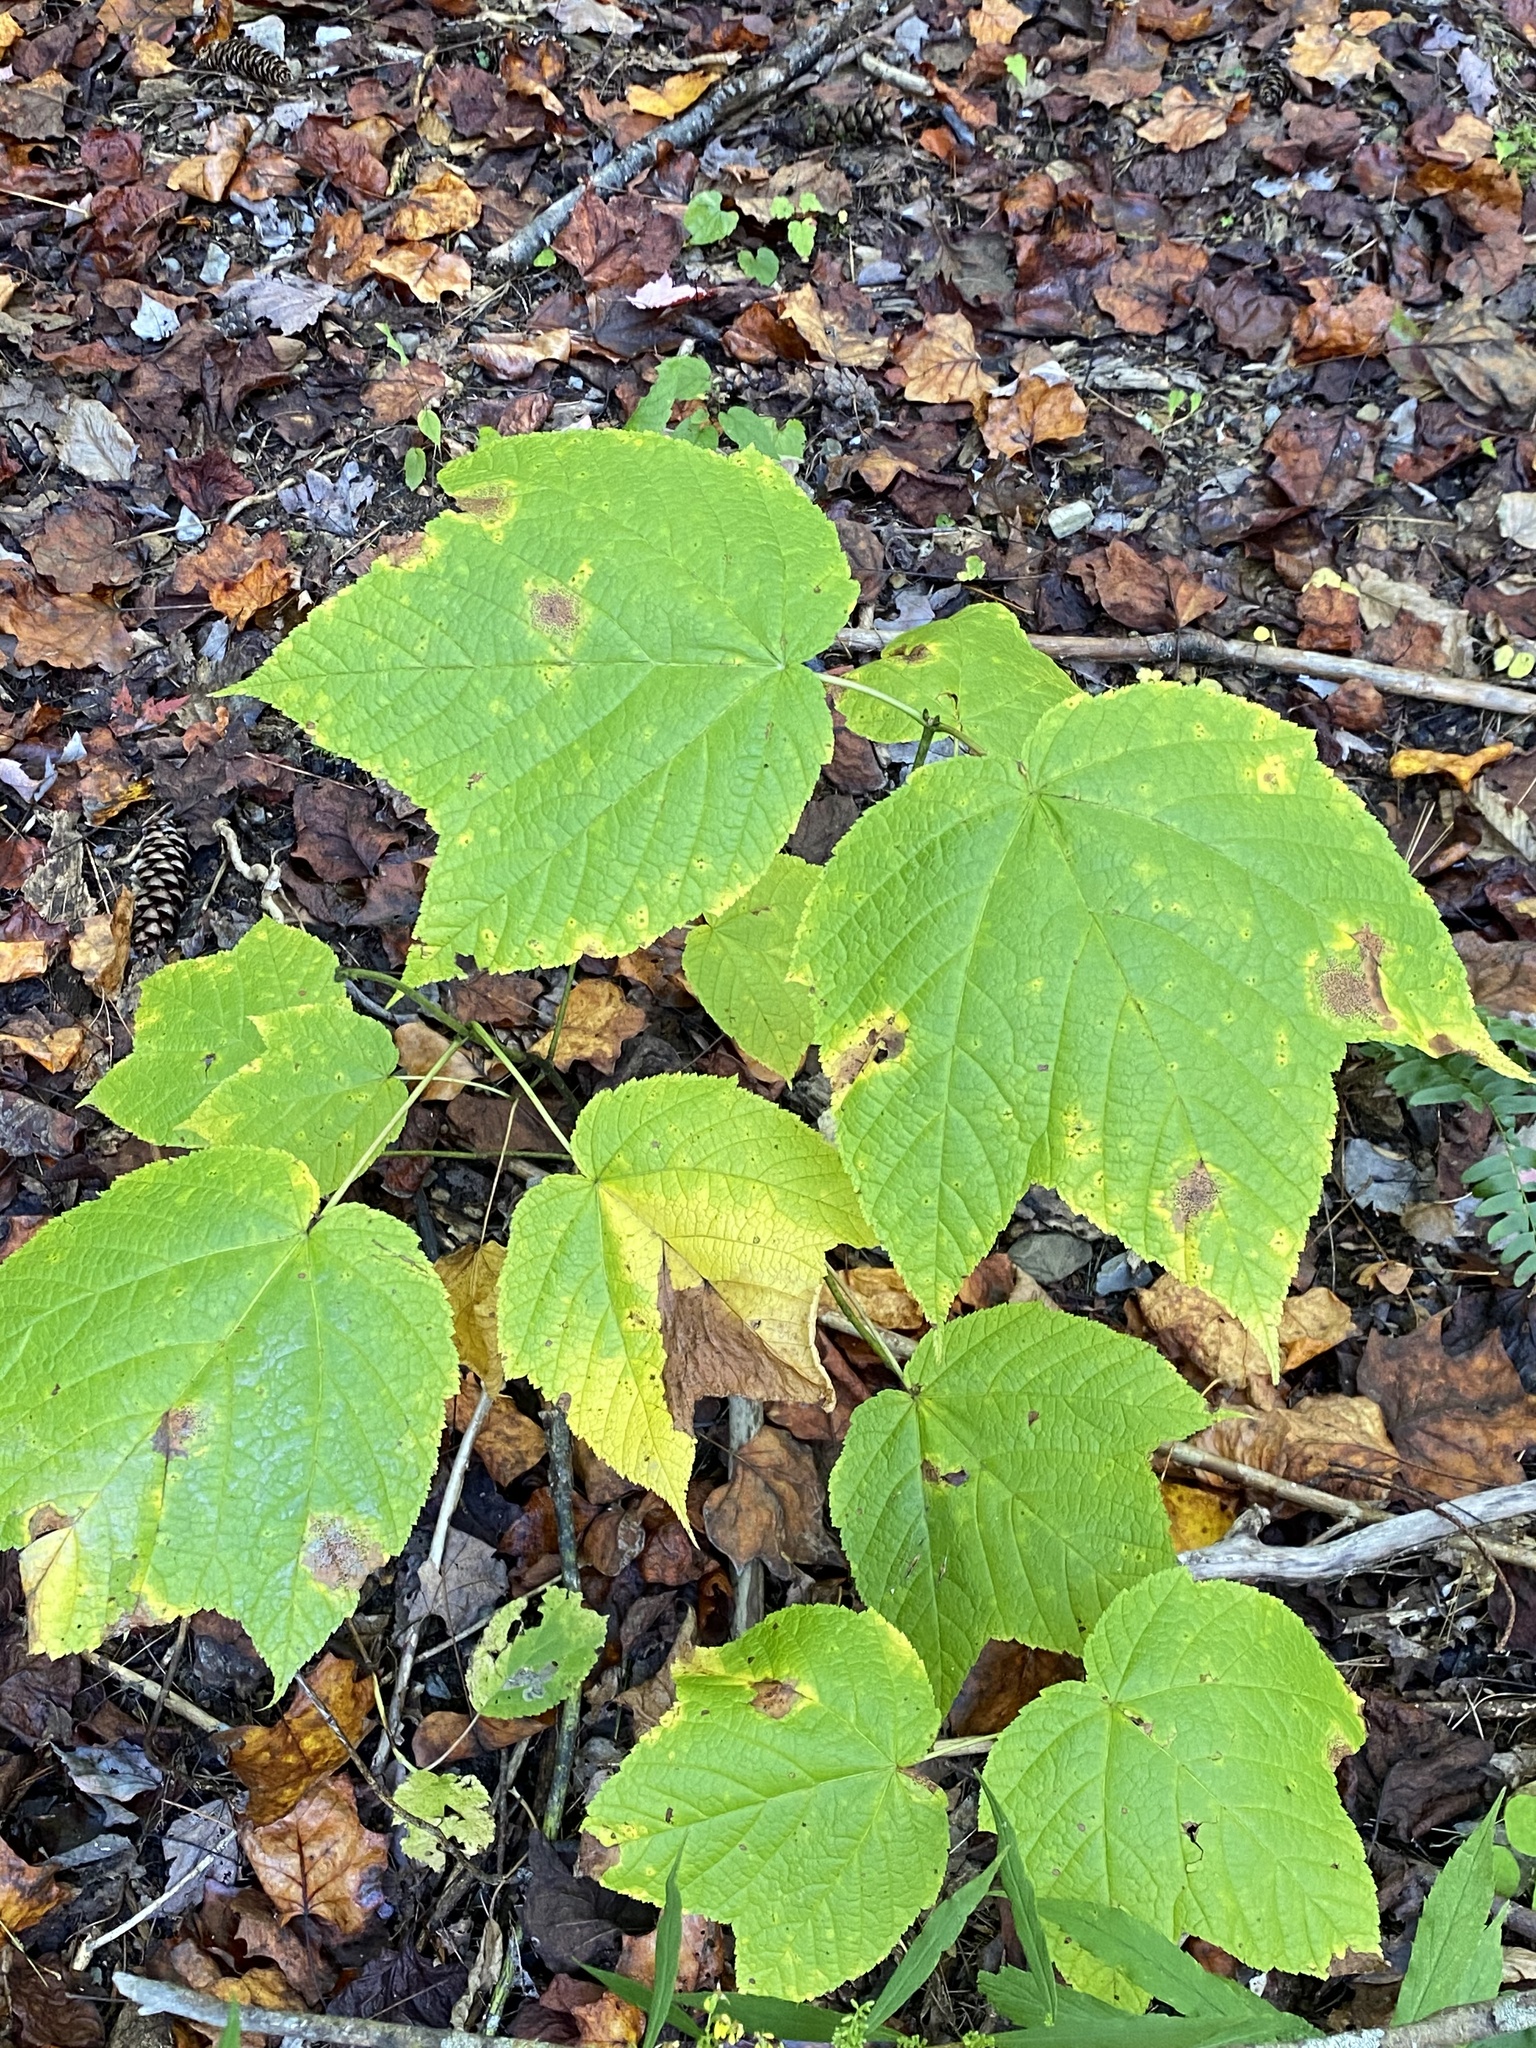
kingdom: Plantae
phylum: Tracheophyta
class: Magnoliopsida
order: Sapindales
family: Sapindaceae
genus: Acer
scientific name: Acer pensylvanicum
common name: Moosewood
